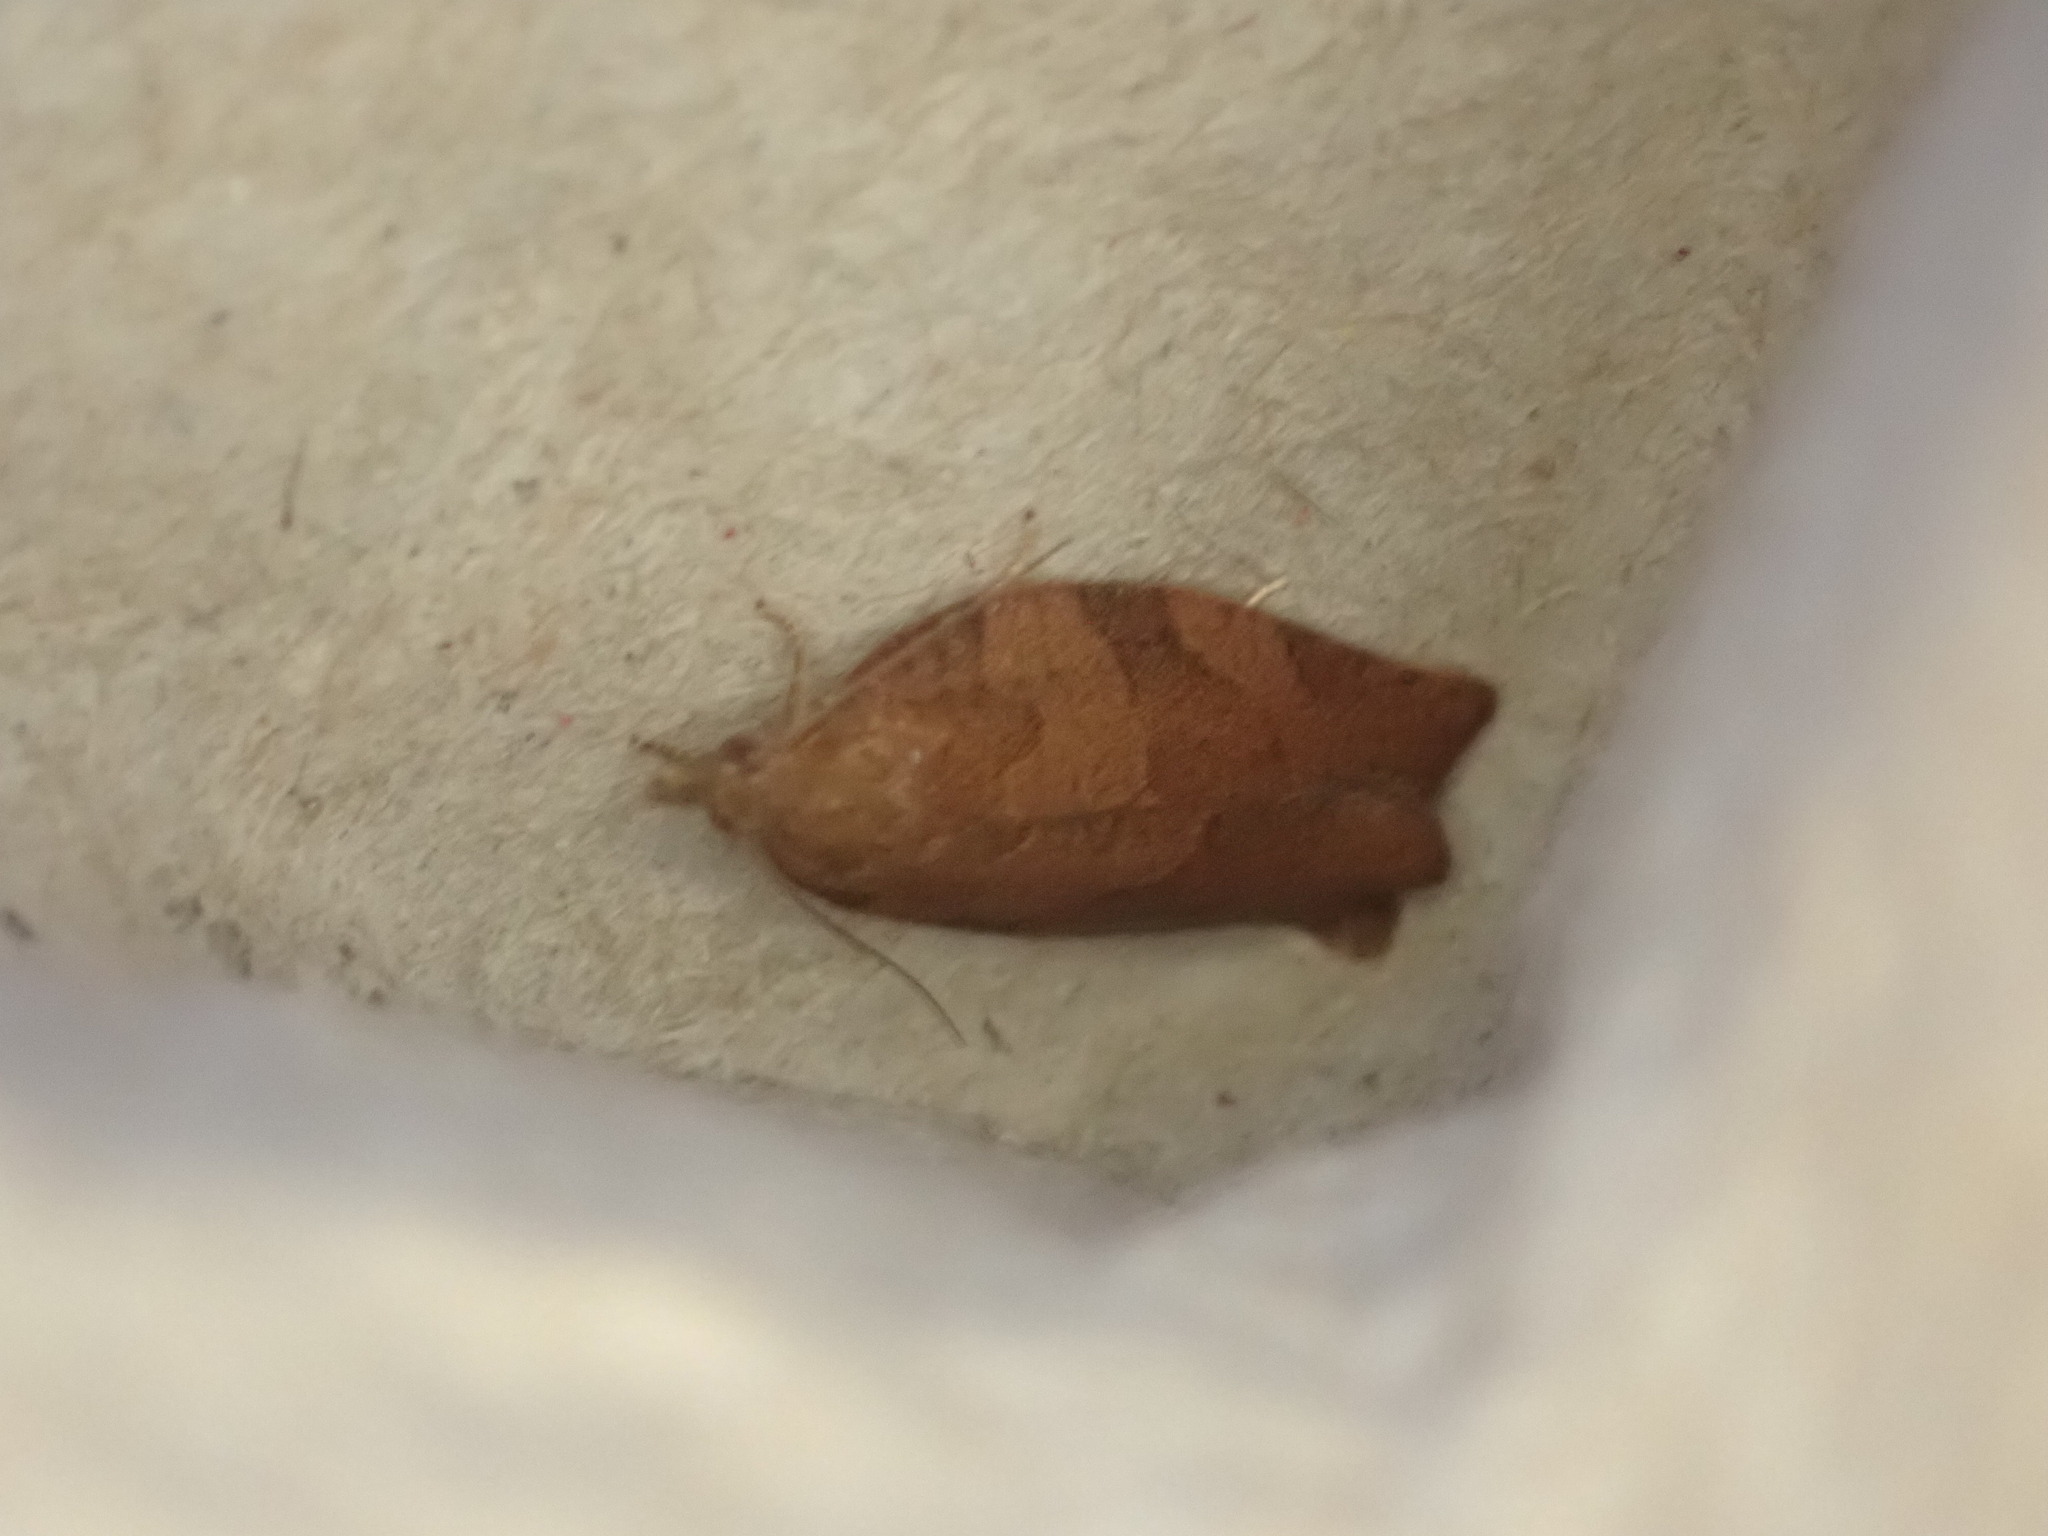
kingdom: Animalia
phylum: Arthropoda
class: Insecta
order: Lepidoptera
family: Tortricidae
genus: Pandemis
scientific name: Pandemis heparana
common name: Dark fruit-tree tortrix
